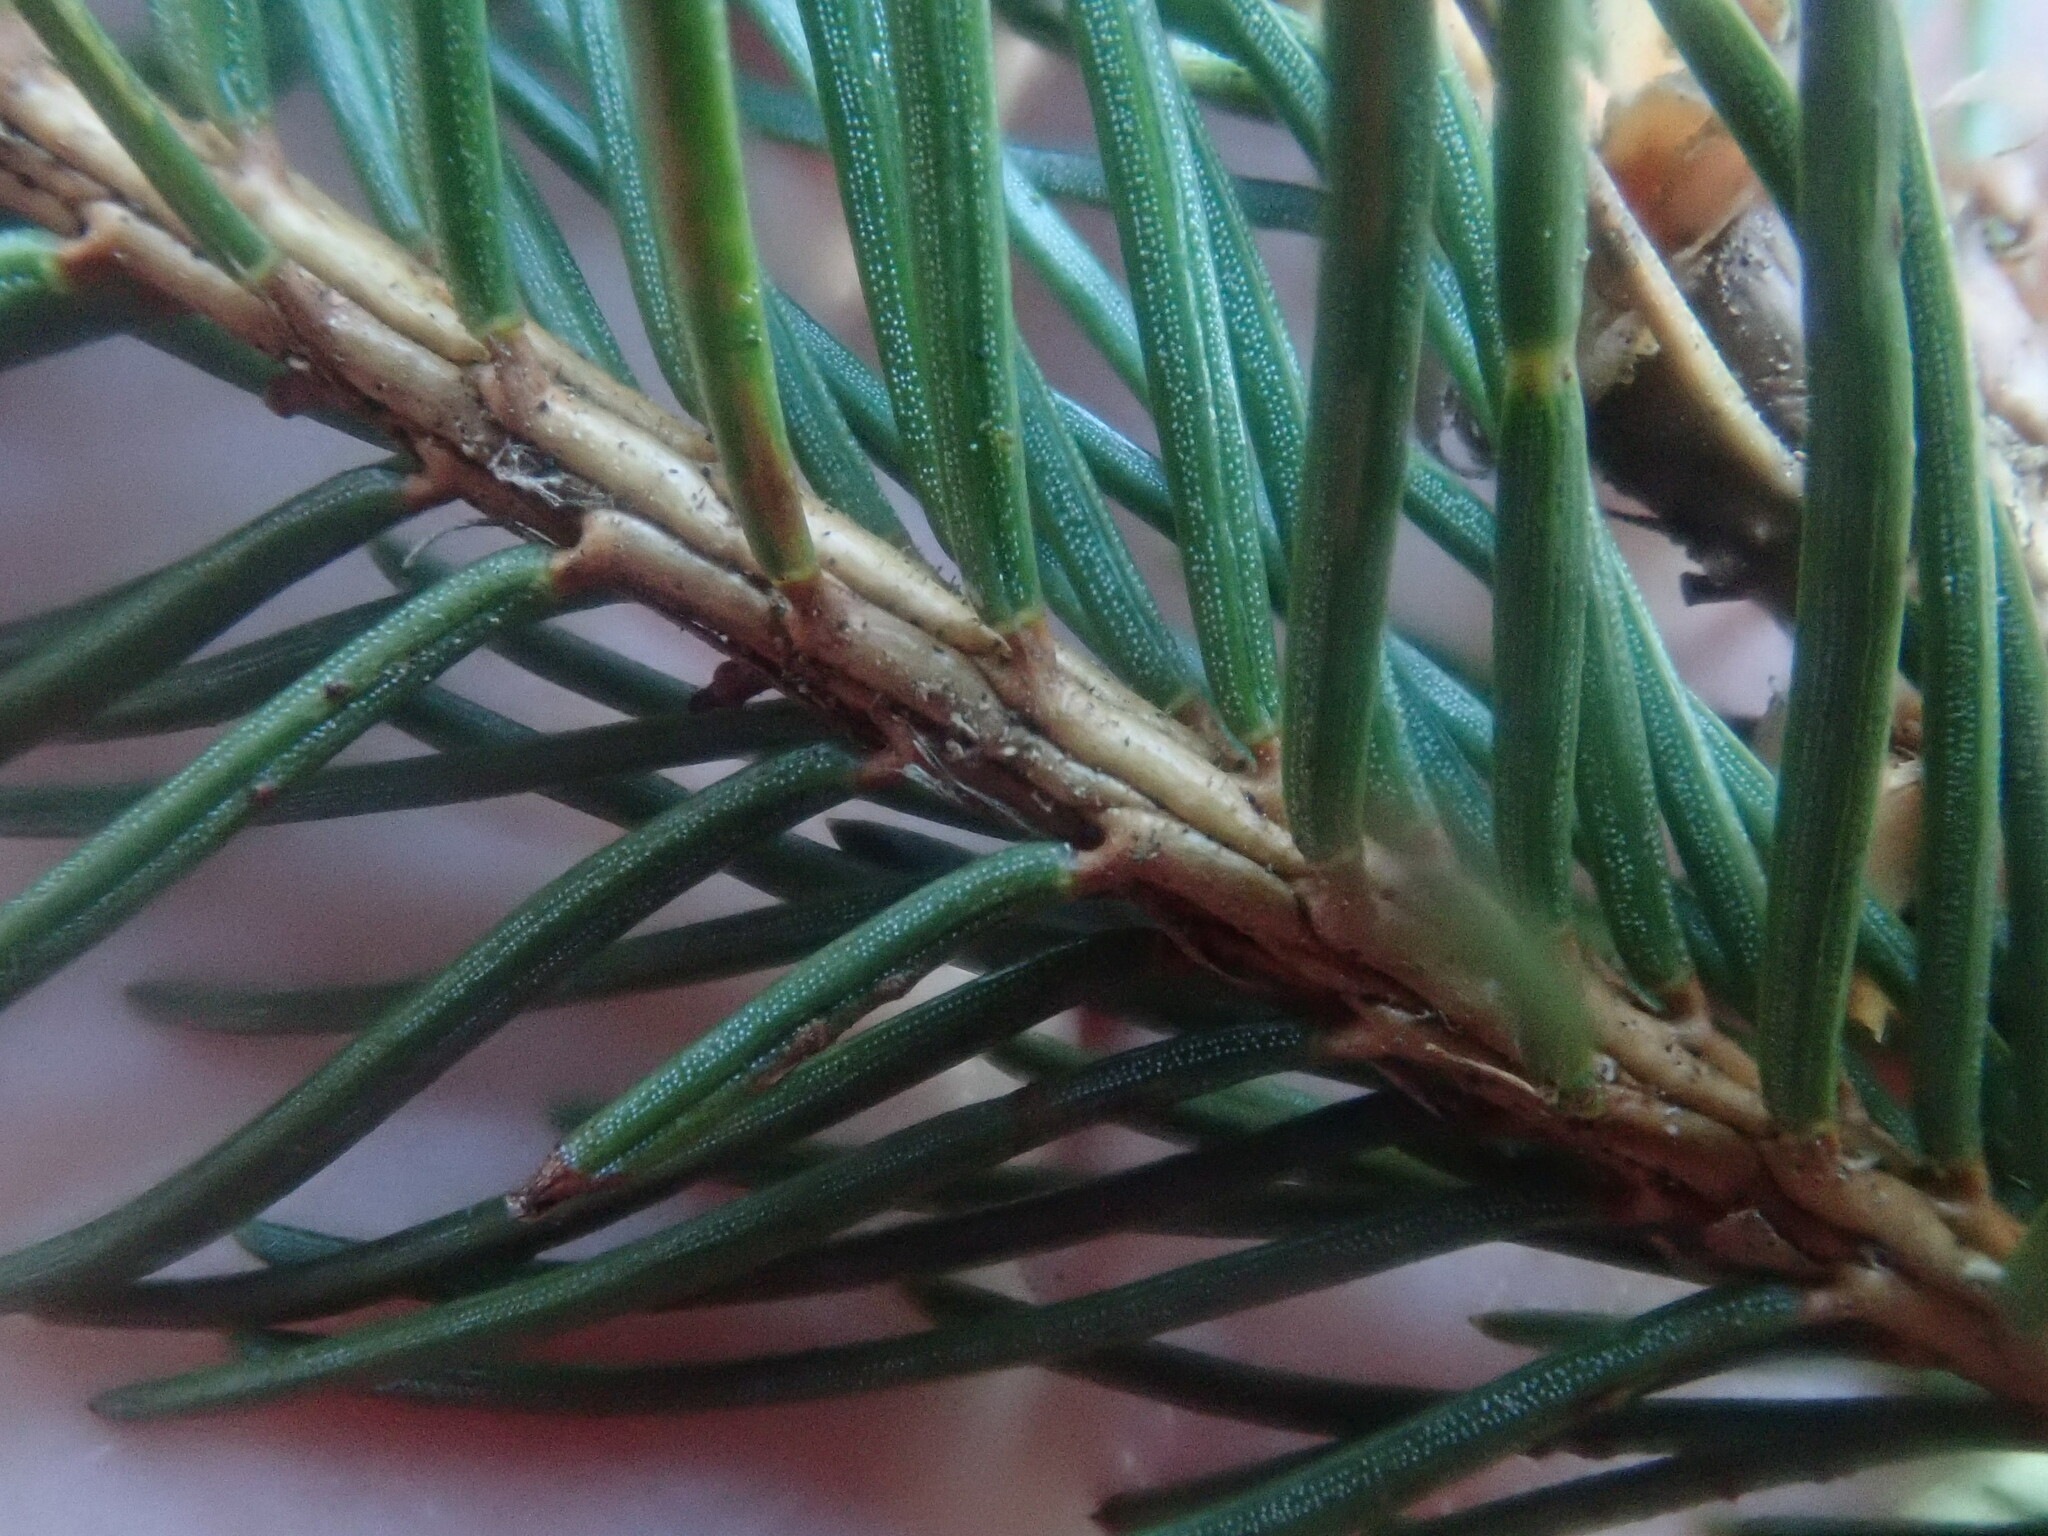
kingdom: Plantae
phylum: Tracheophyta
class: Pinopsida
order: Pinales
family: Pinaceae
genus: Picea
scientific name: Picea abies
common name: Norway spruce
